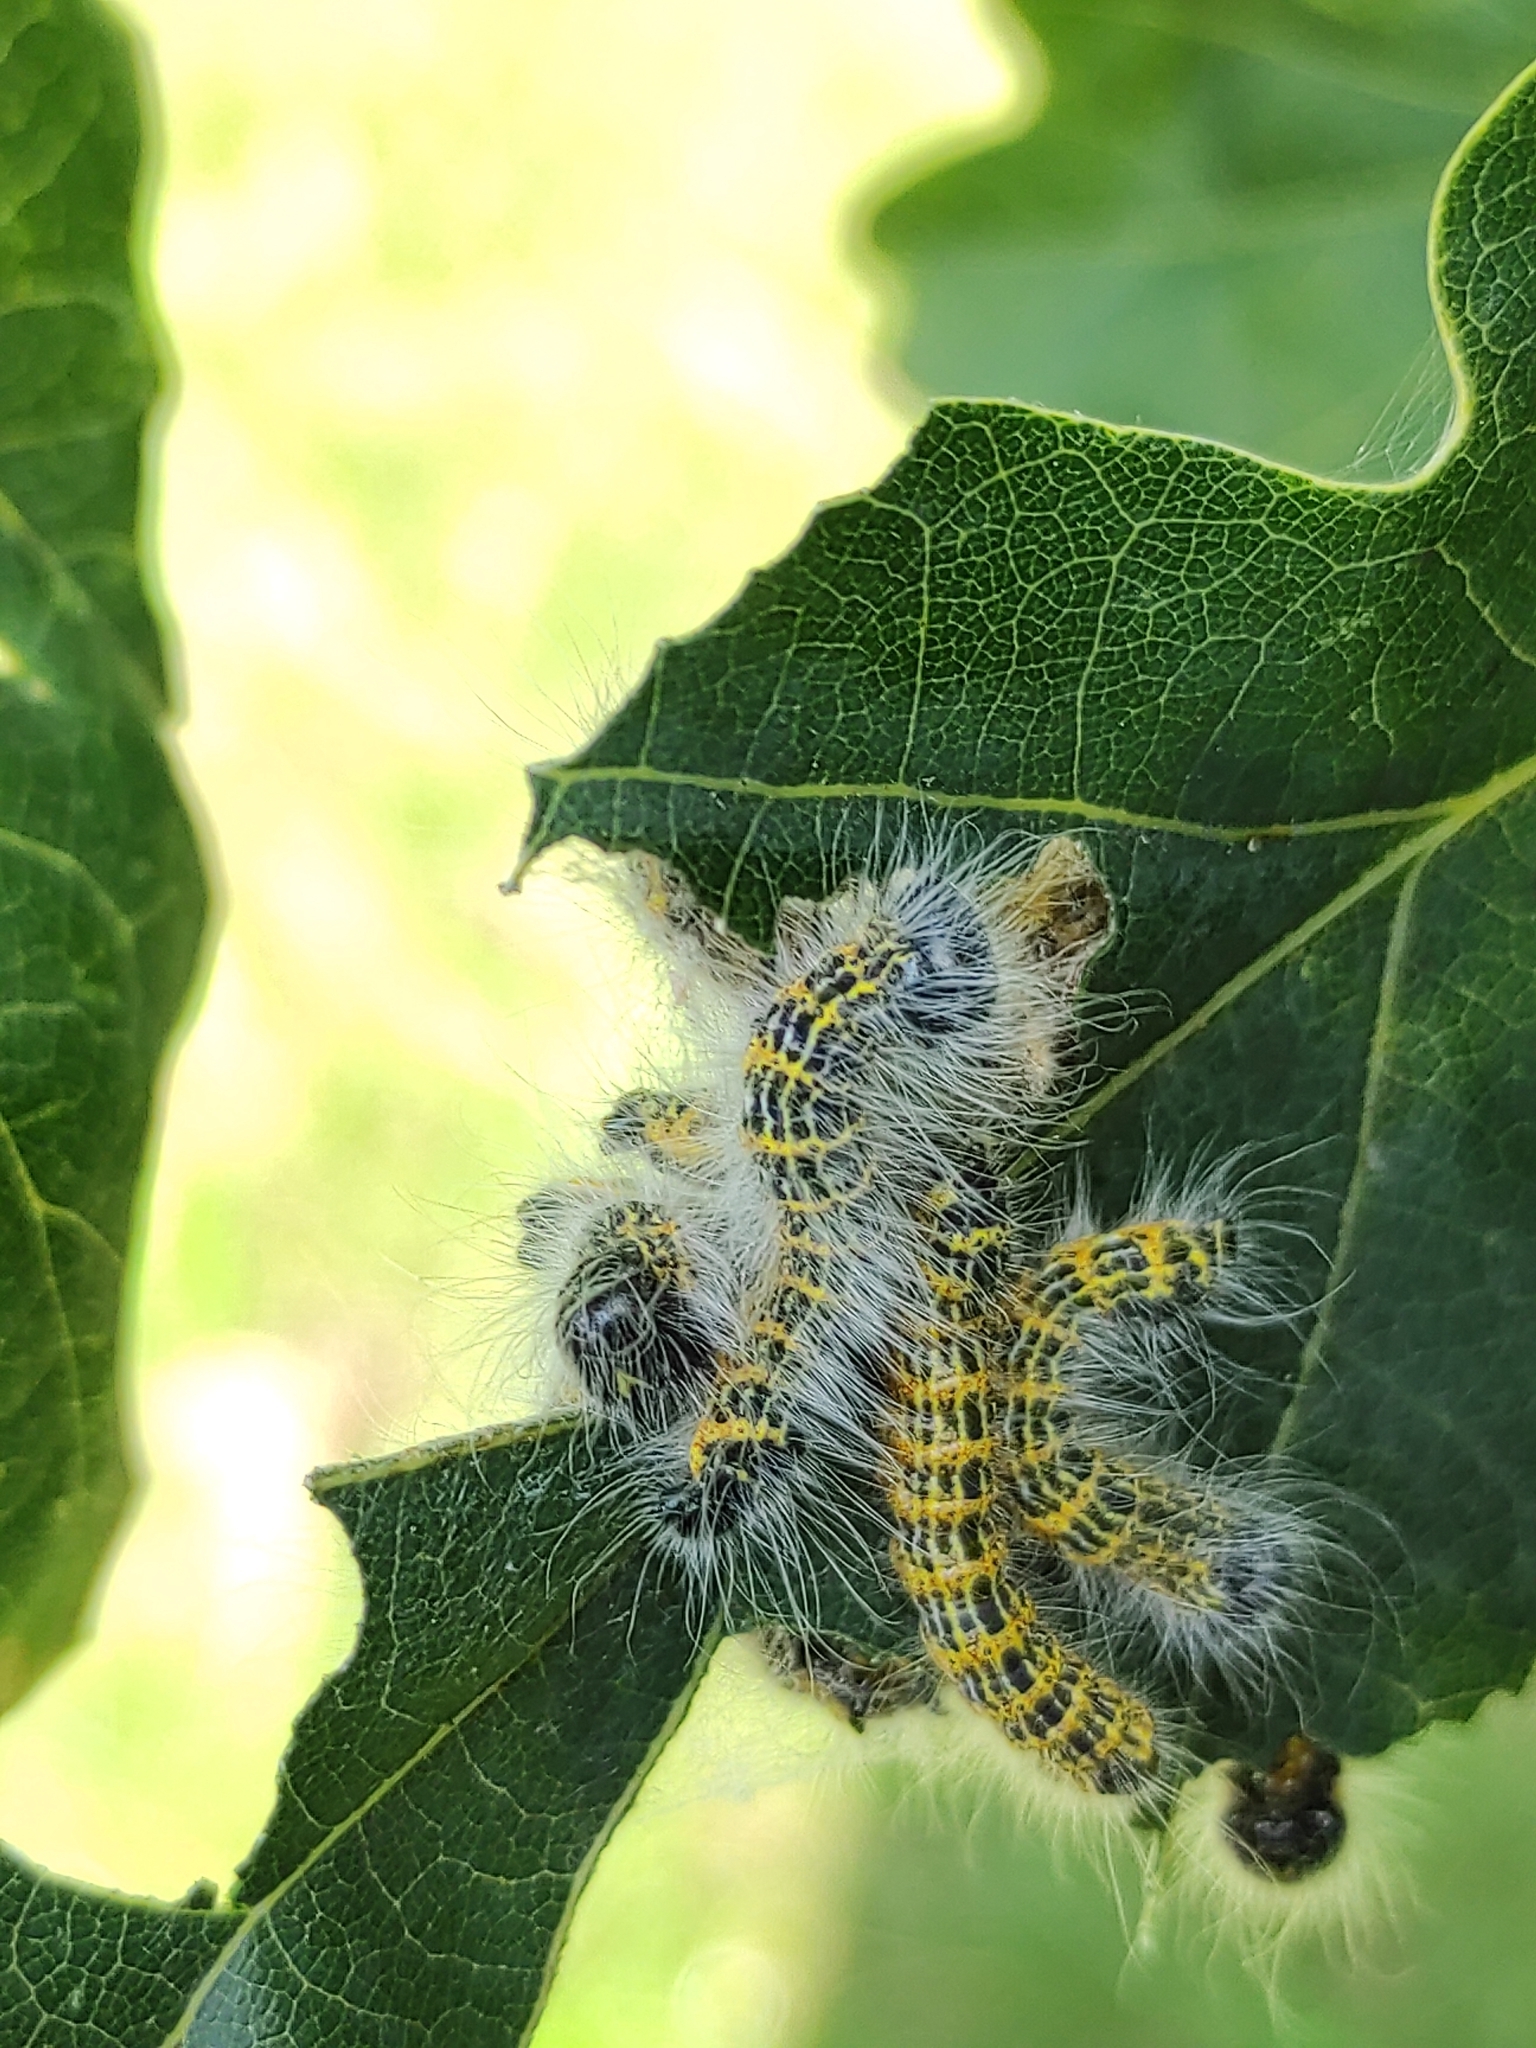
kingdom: Animalia
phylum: Arthropoda
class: Insecta
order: Lepidoptera
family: Notodontidae
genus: Phalera
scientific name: Phalera bucephala
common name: Buff-tip
